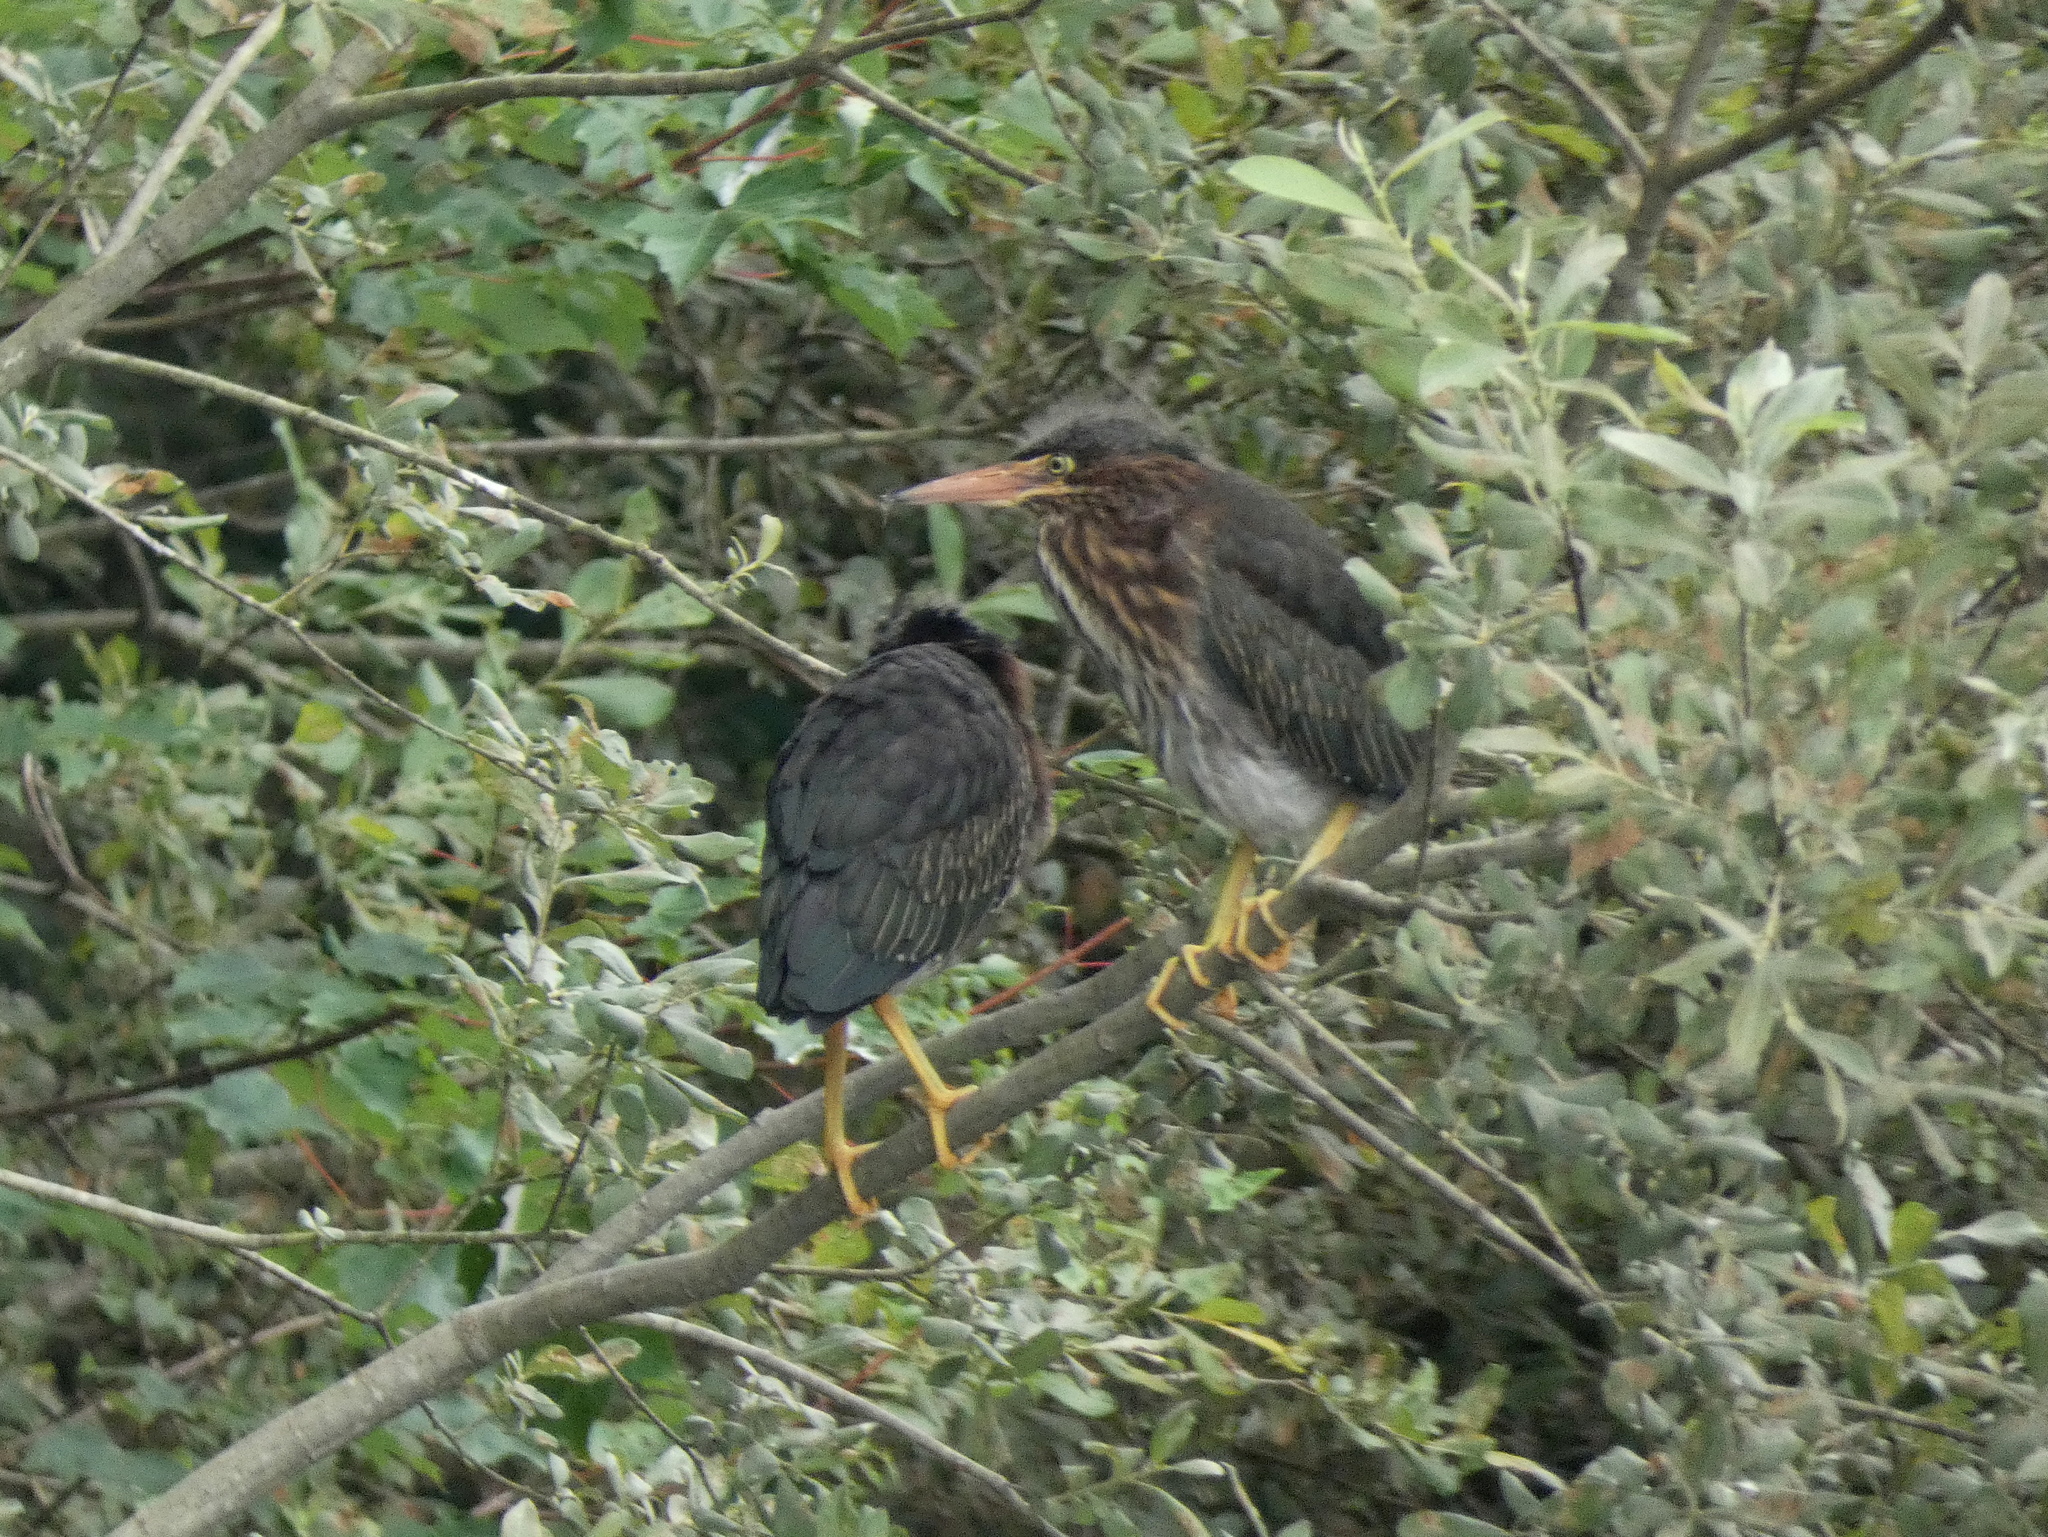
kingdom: Animalia
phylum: Chordata
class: Aves
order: Pelecaniformes
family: Ardeidae
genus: Butorides
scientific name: Butorides virescens
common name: Green heron
